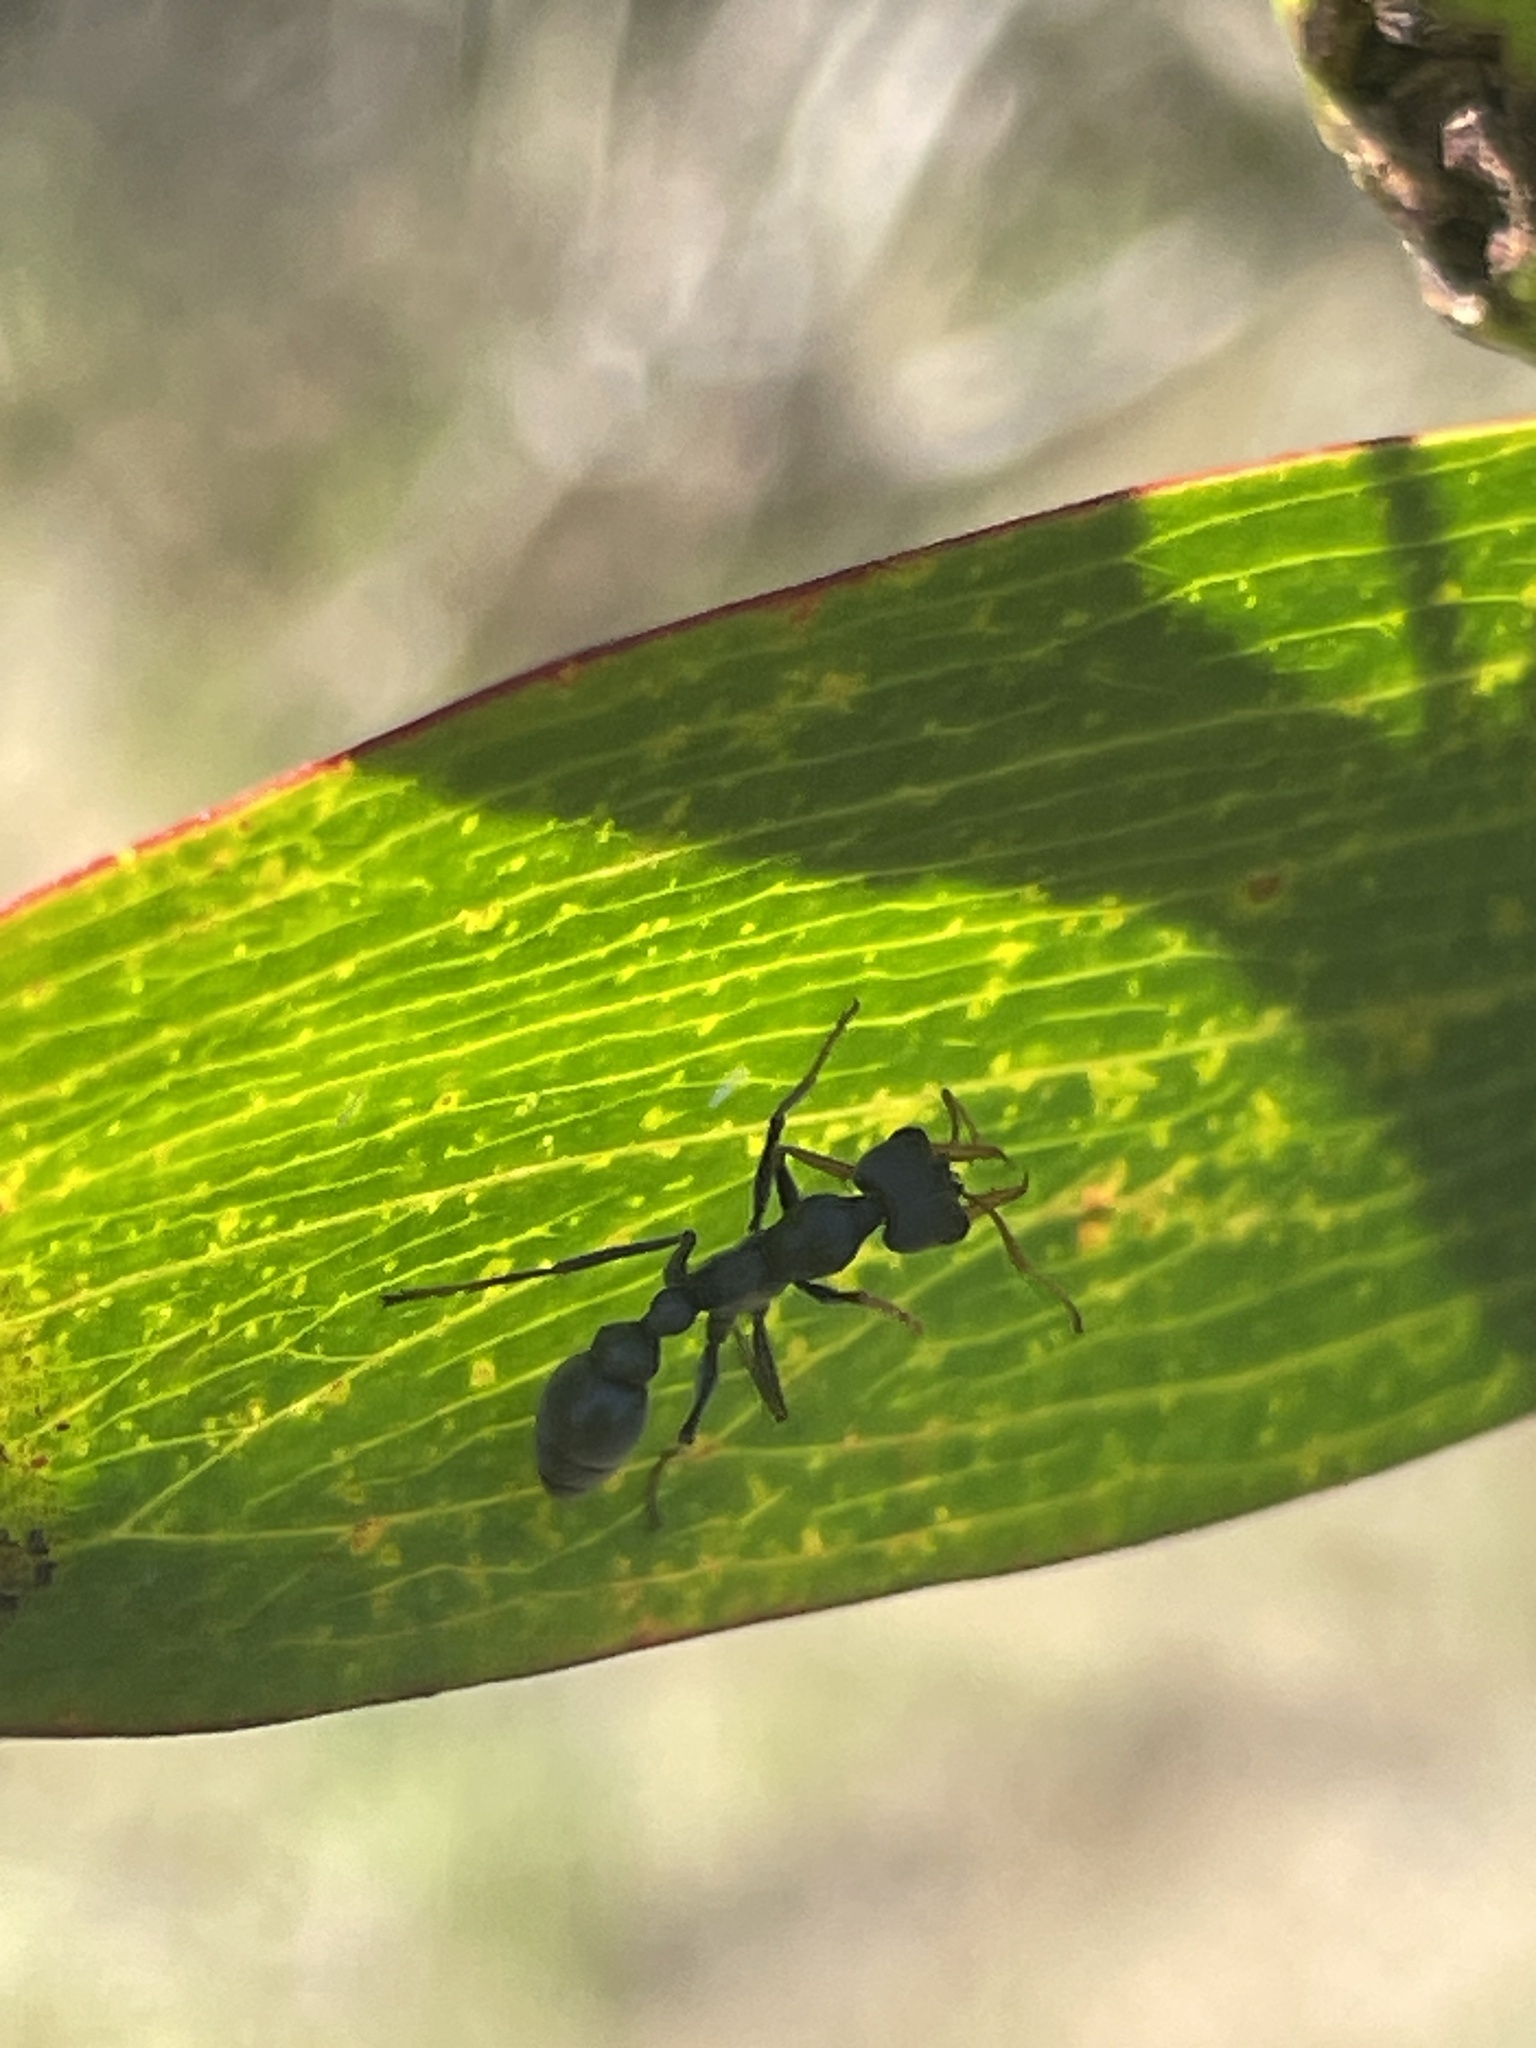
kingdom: Animalia
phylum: Arthropoda
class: Insecta
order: Hymenoptera
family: Formicidae
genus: Myrmecia
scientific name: Myrmecia pilosula
